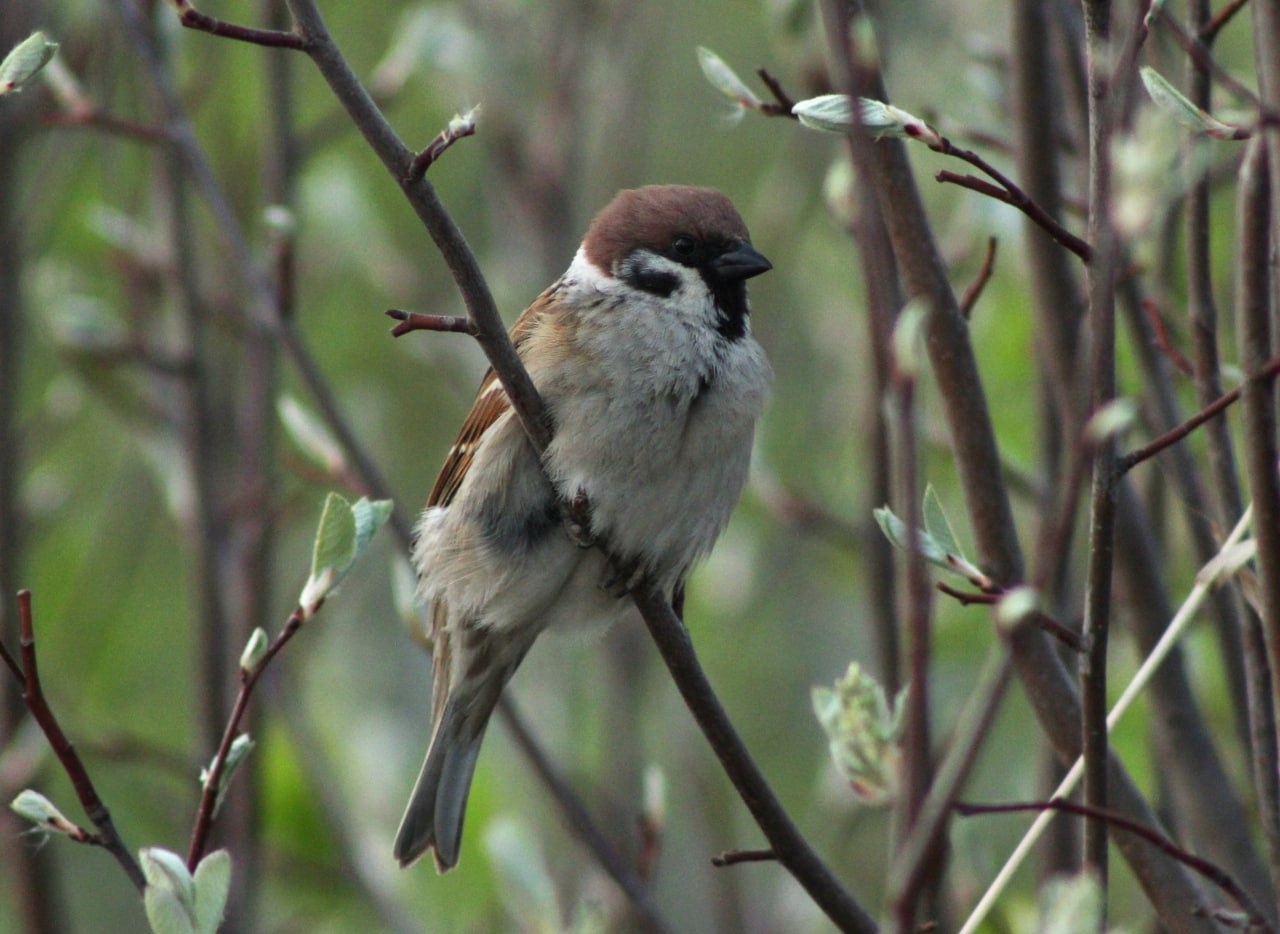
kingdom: Animalia
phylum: Chordata
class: Aves
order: Passeriformes
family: Passeridae
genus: Passer
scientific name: Passer montanus
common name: Eurasian tree sparrow
